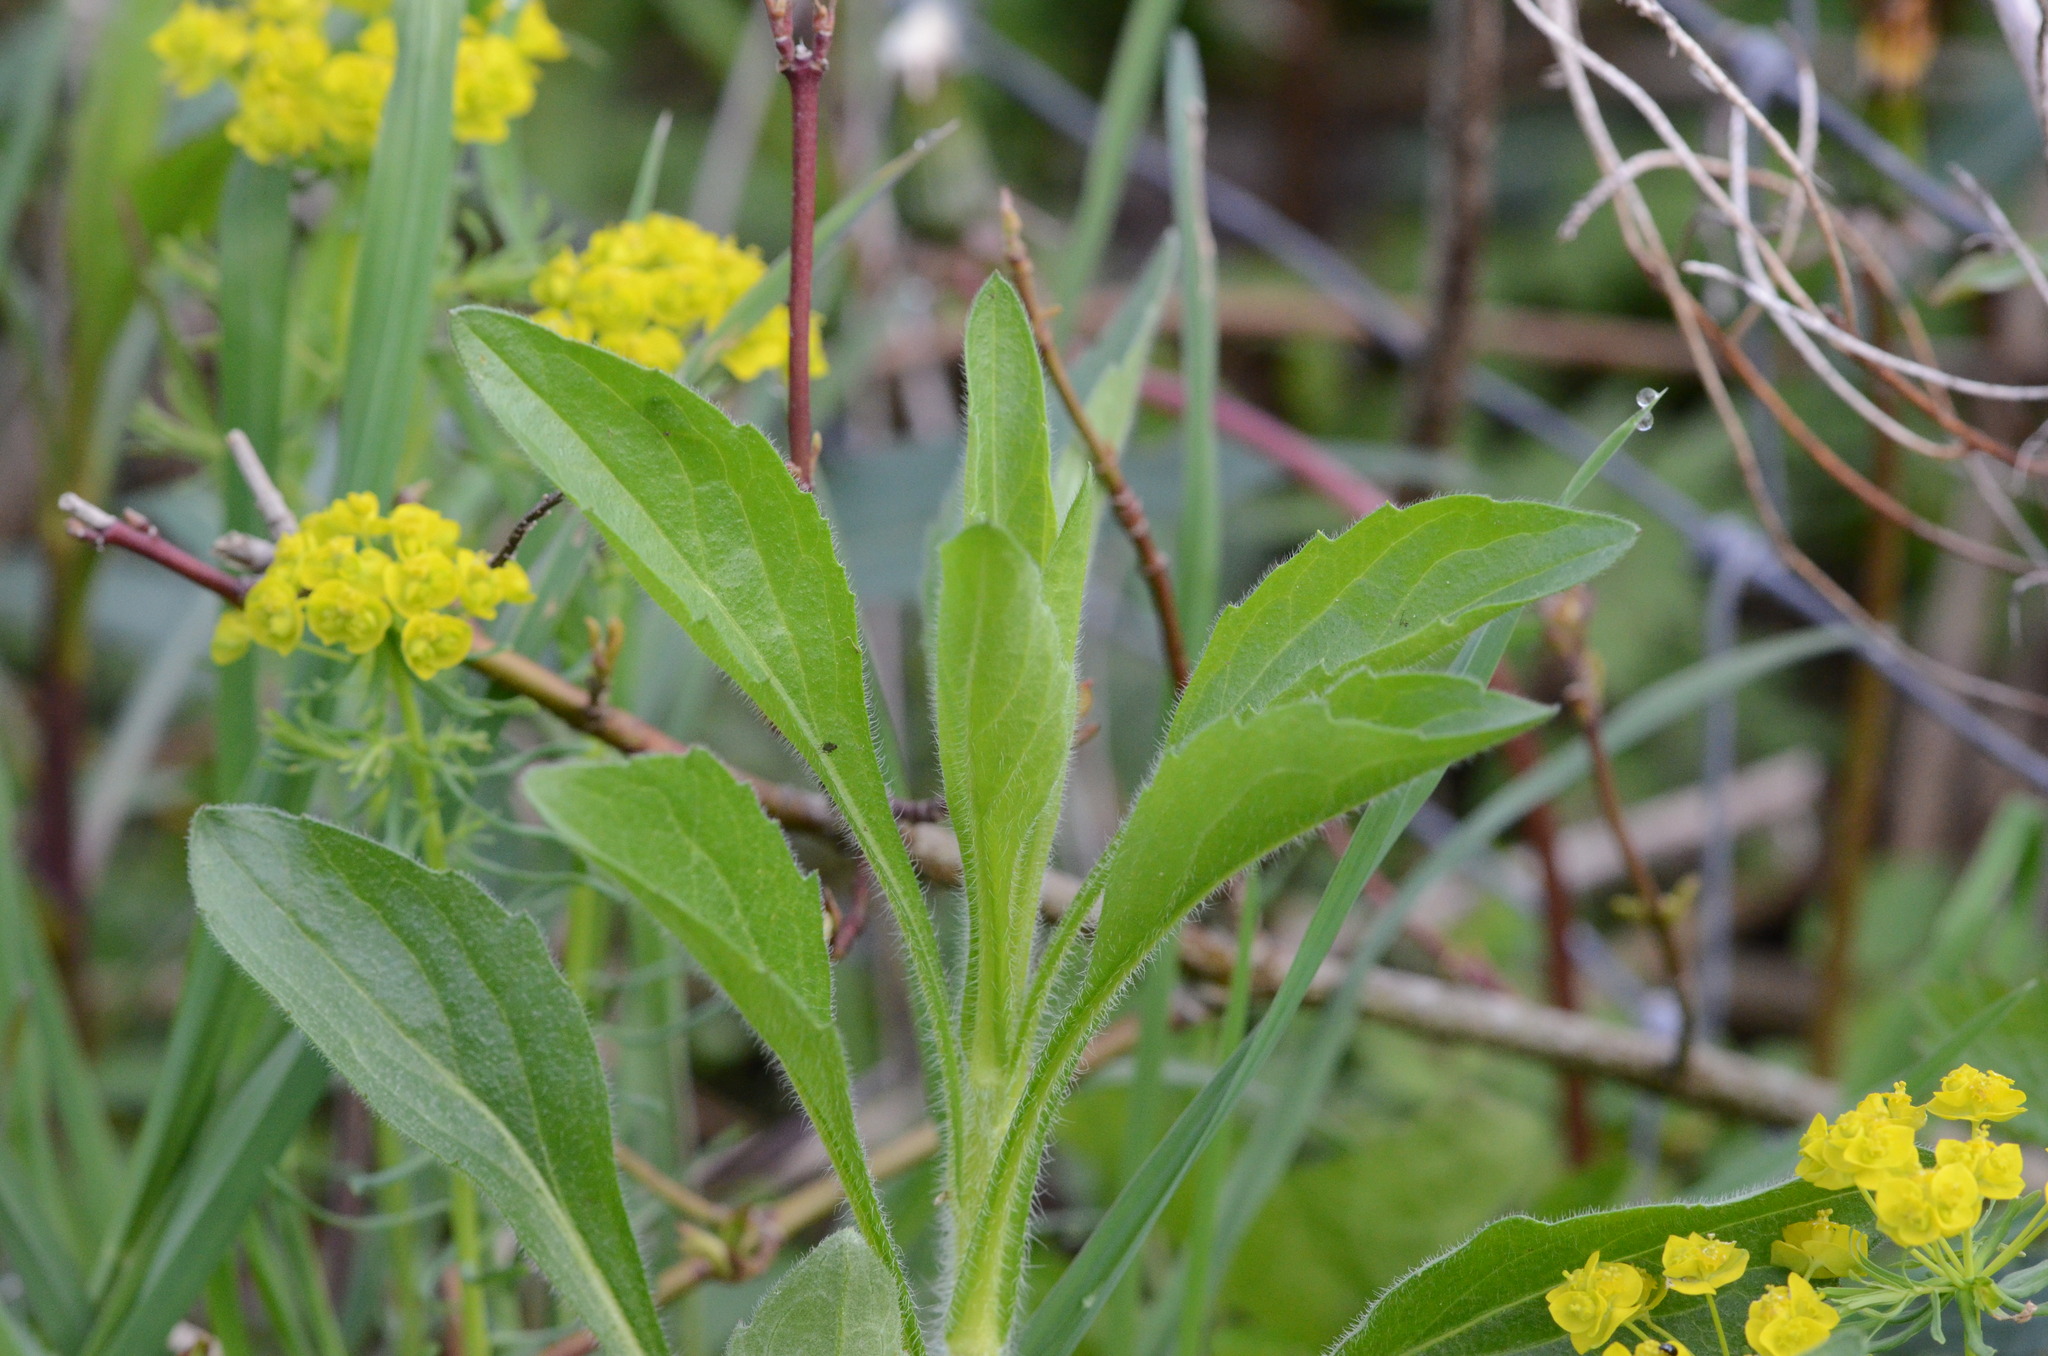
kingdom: Plantae
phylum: Tracheophyta
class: Magnoliopsida
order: Asterales
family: Asteraceae
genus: Erigeron
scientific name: Erigeron annuus
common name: Tall fleabane
